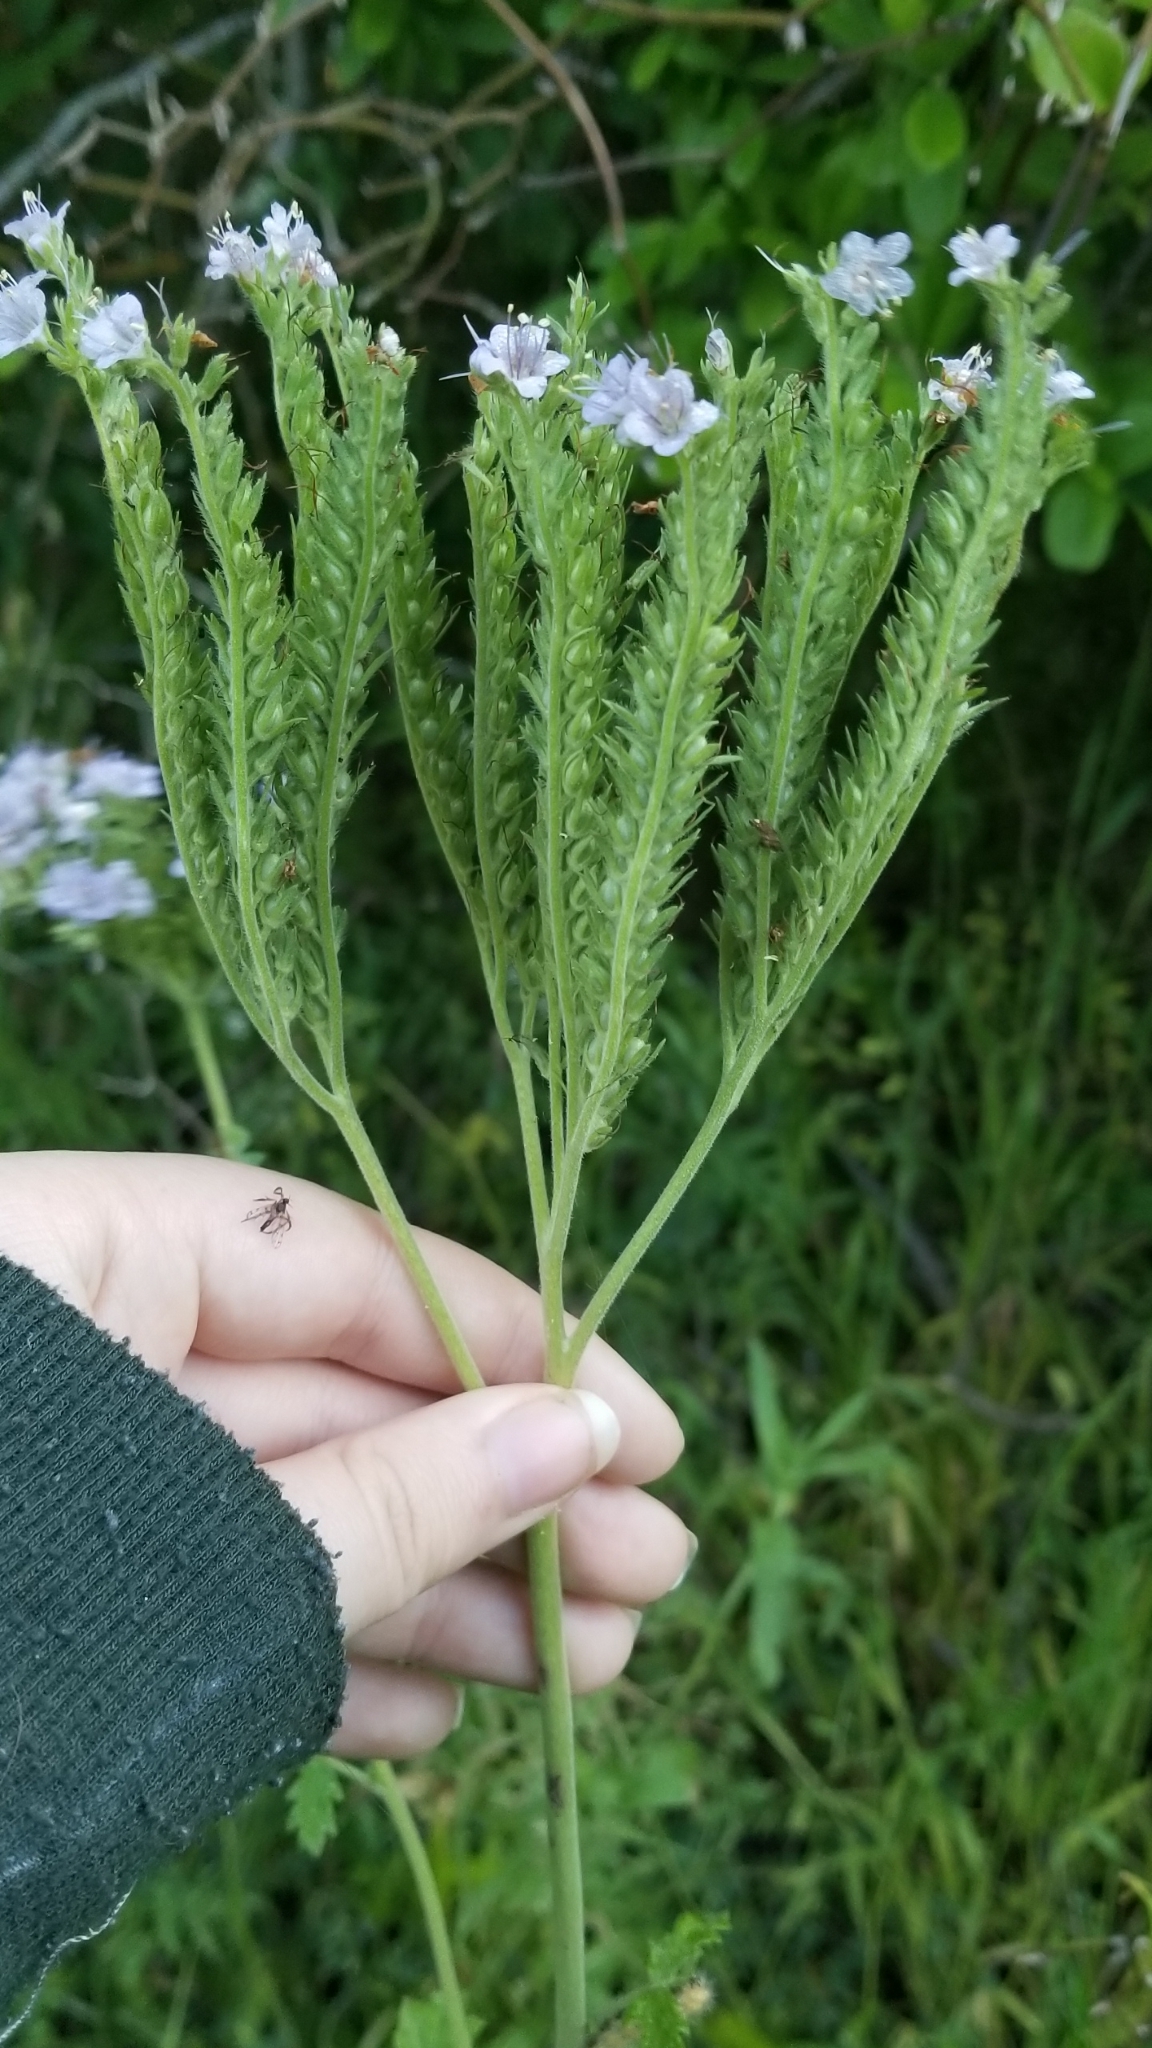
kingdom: Plantae
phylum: Tracheophyta
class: Magnoliopsida
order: Boraginales
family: Hydrophyllaceae
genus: Phacelia
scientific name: Phacelia congesta
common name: Blue curls
